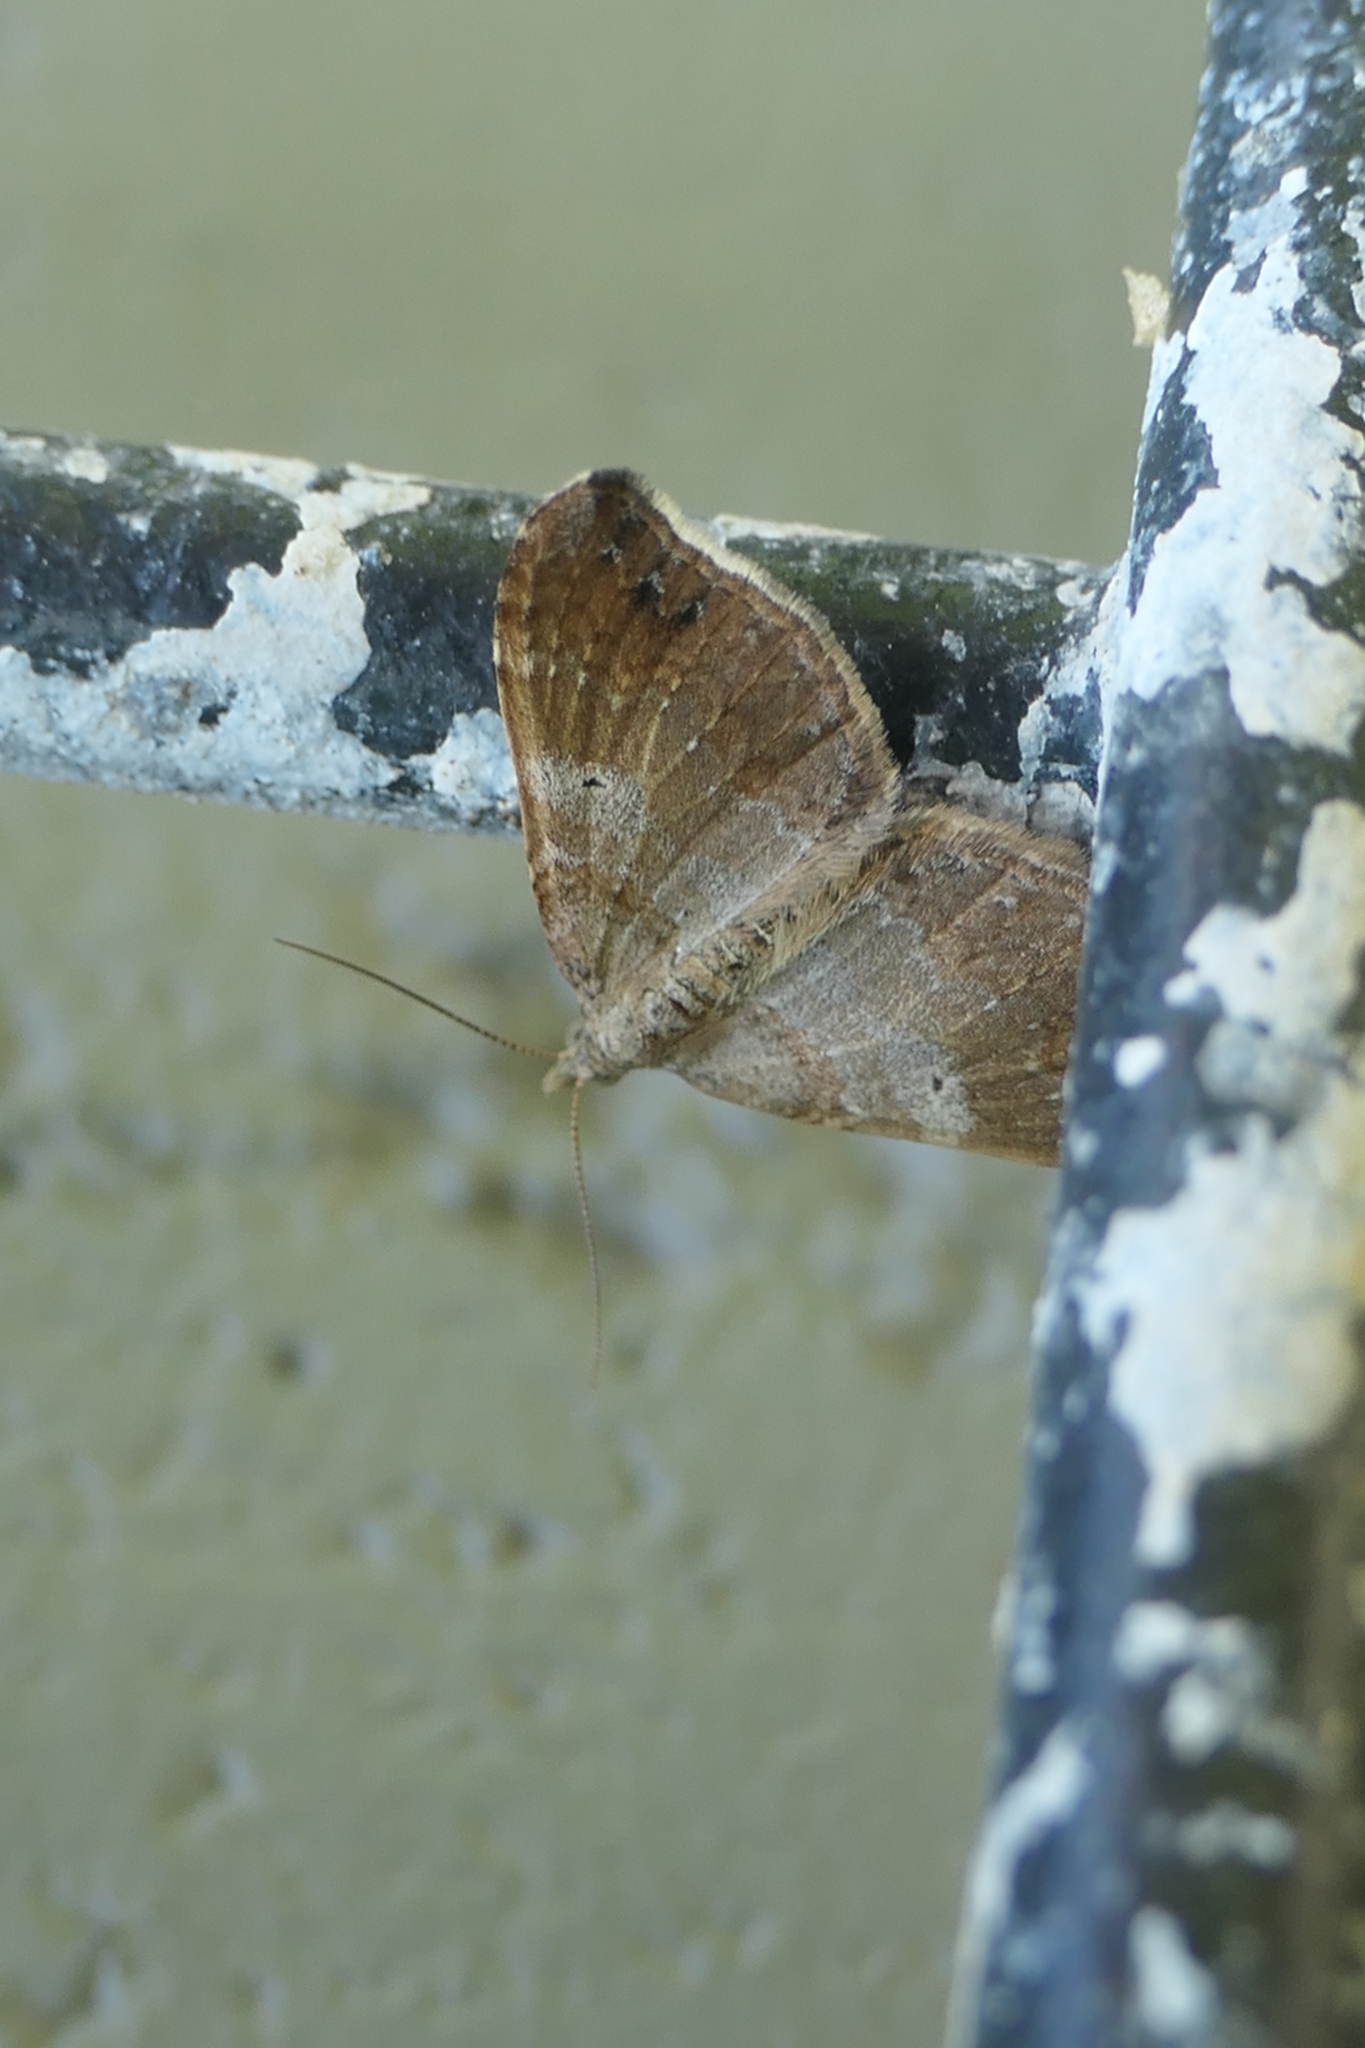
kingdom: Animalia
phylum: Arthropoda
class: Insecta
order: Lepidoptera
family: Geometridae
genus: Homodotis
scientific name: Homodotis megaspilata
